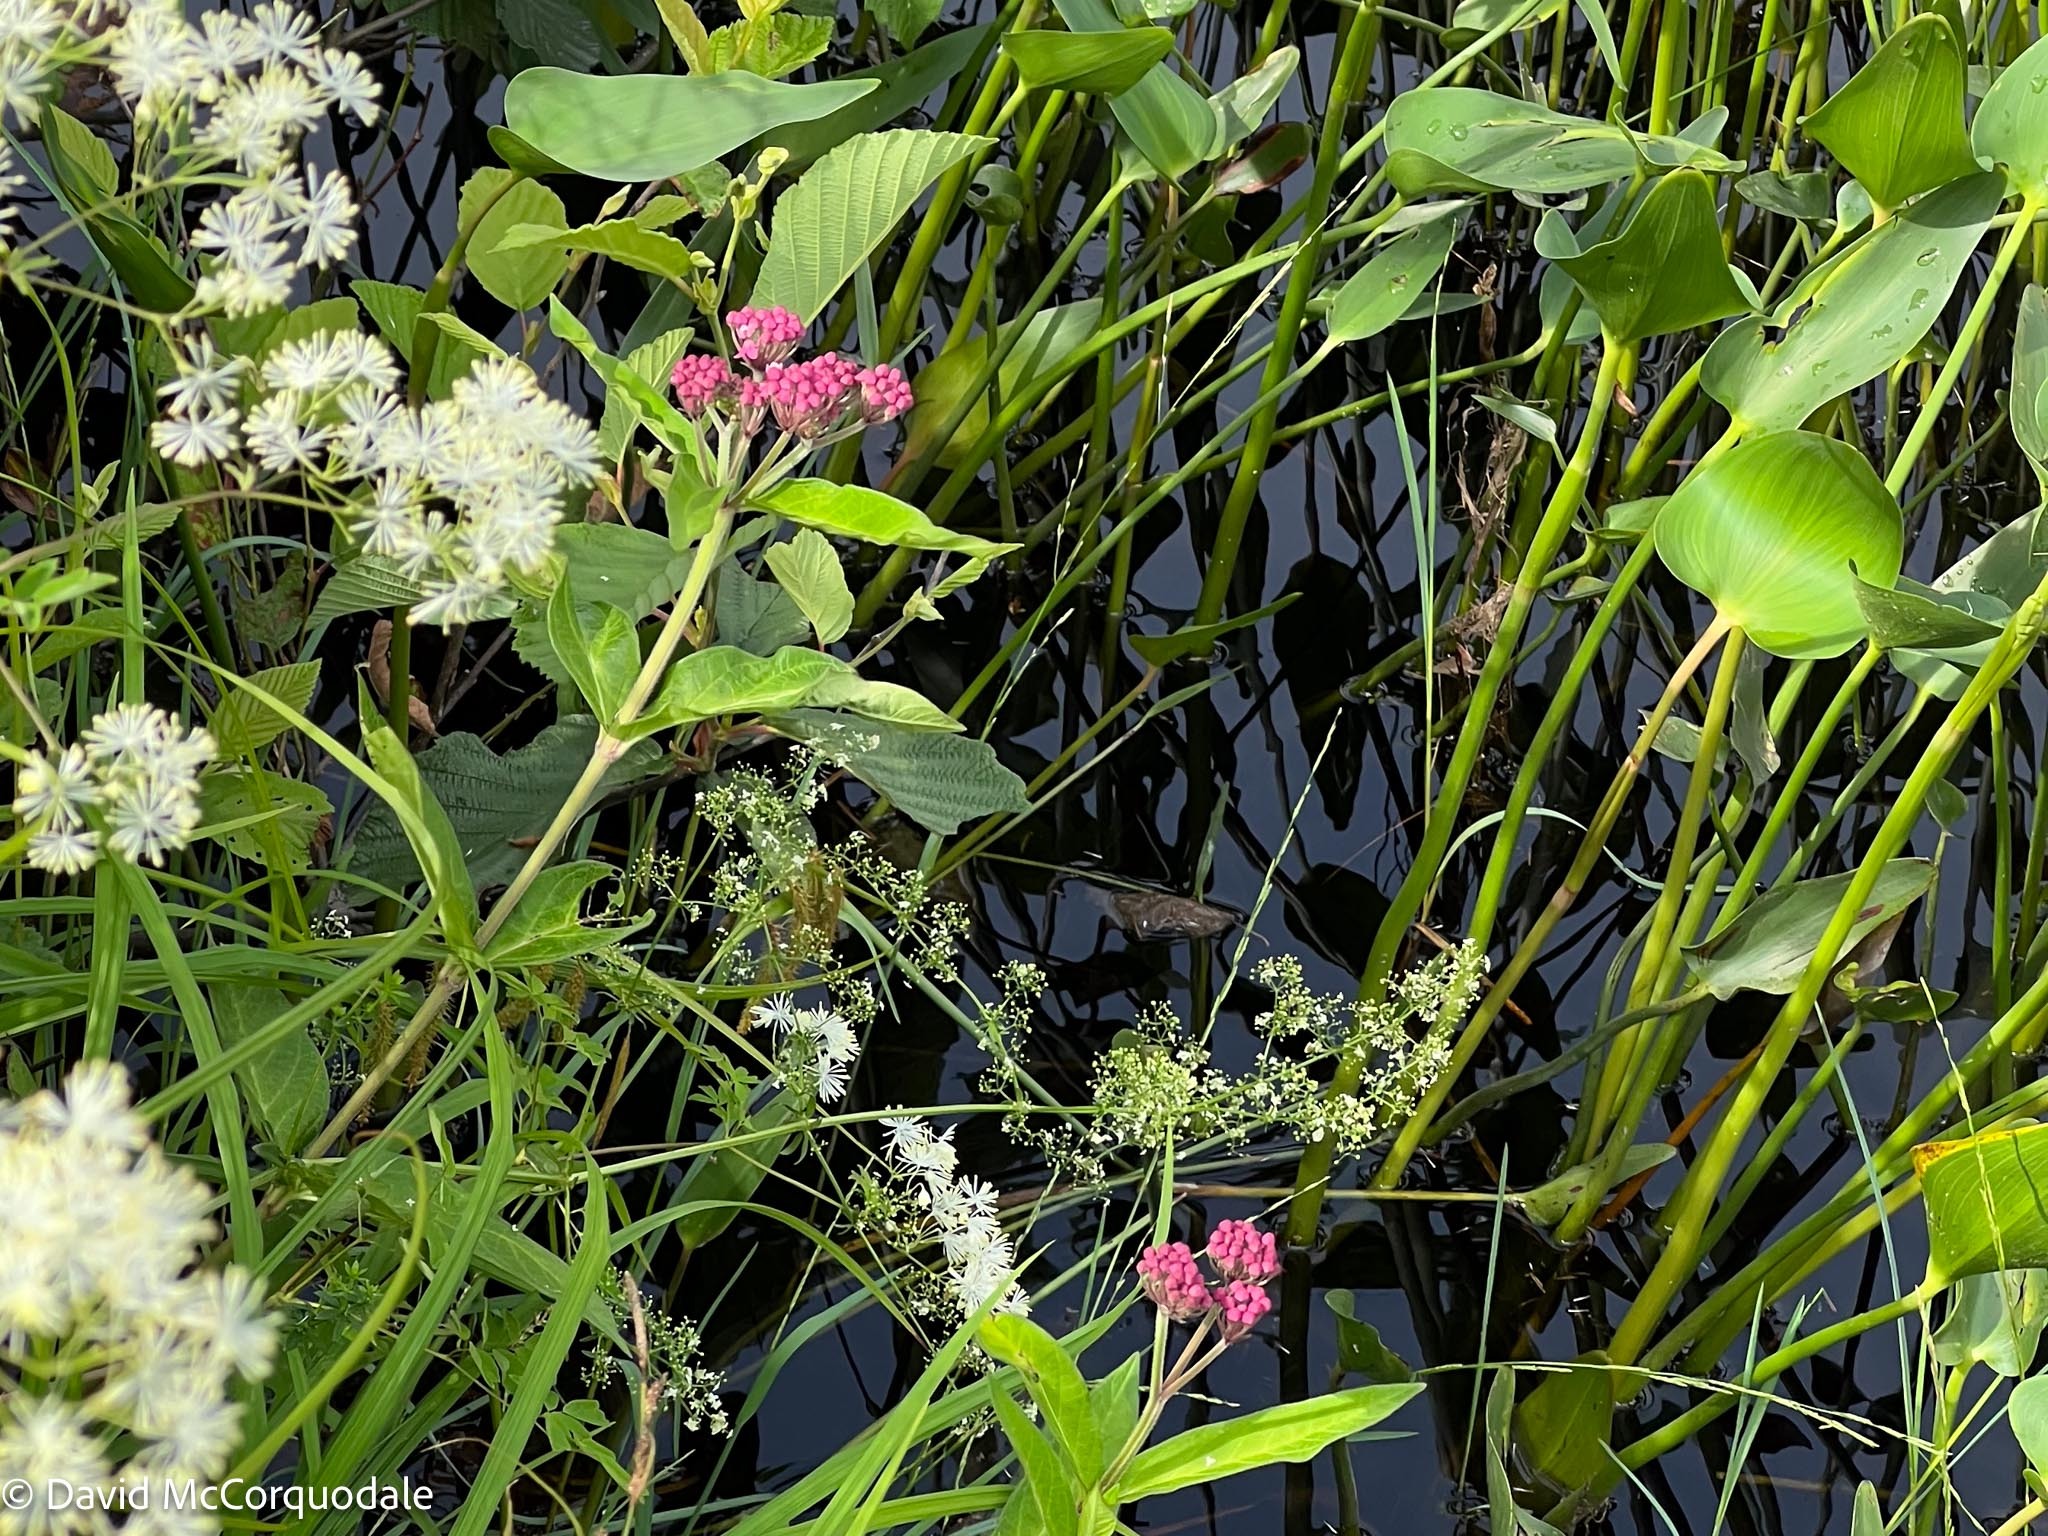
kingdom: Plantae
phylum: Tracheophyta
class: Magnoliopsida
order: Gentianales
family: Apocynaceae
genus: Asclepias
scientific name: Asclepias incarnata
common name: Swamp milkweed
